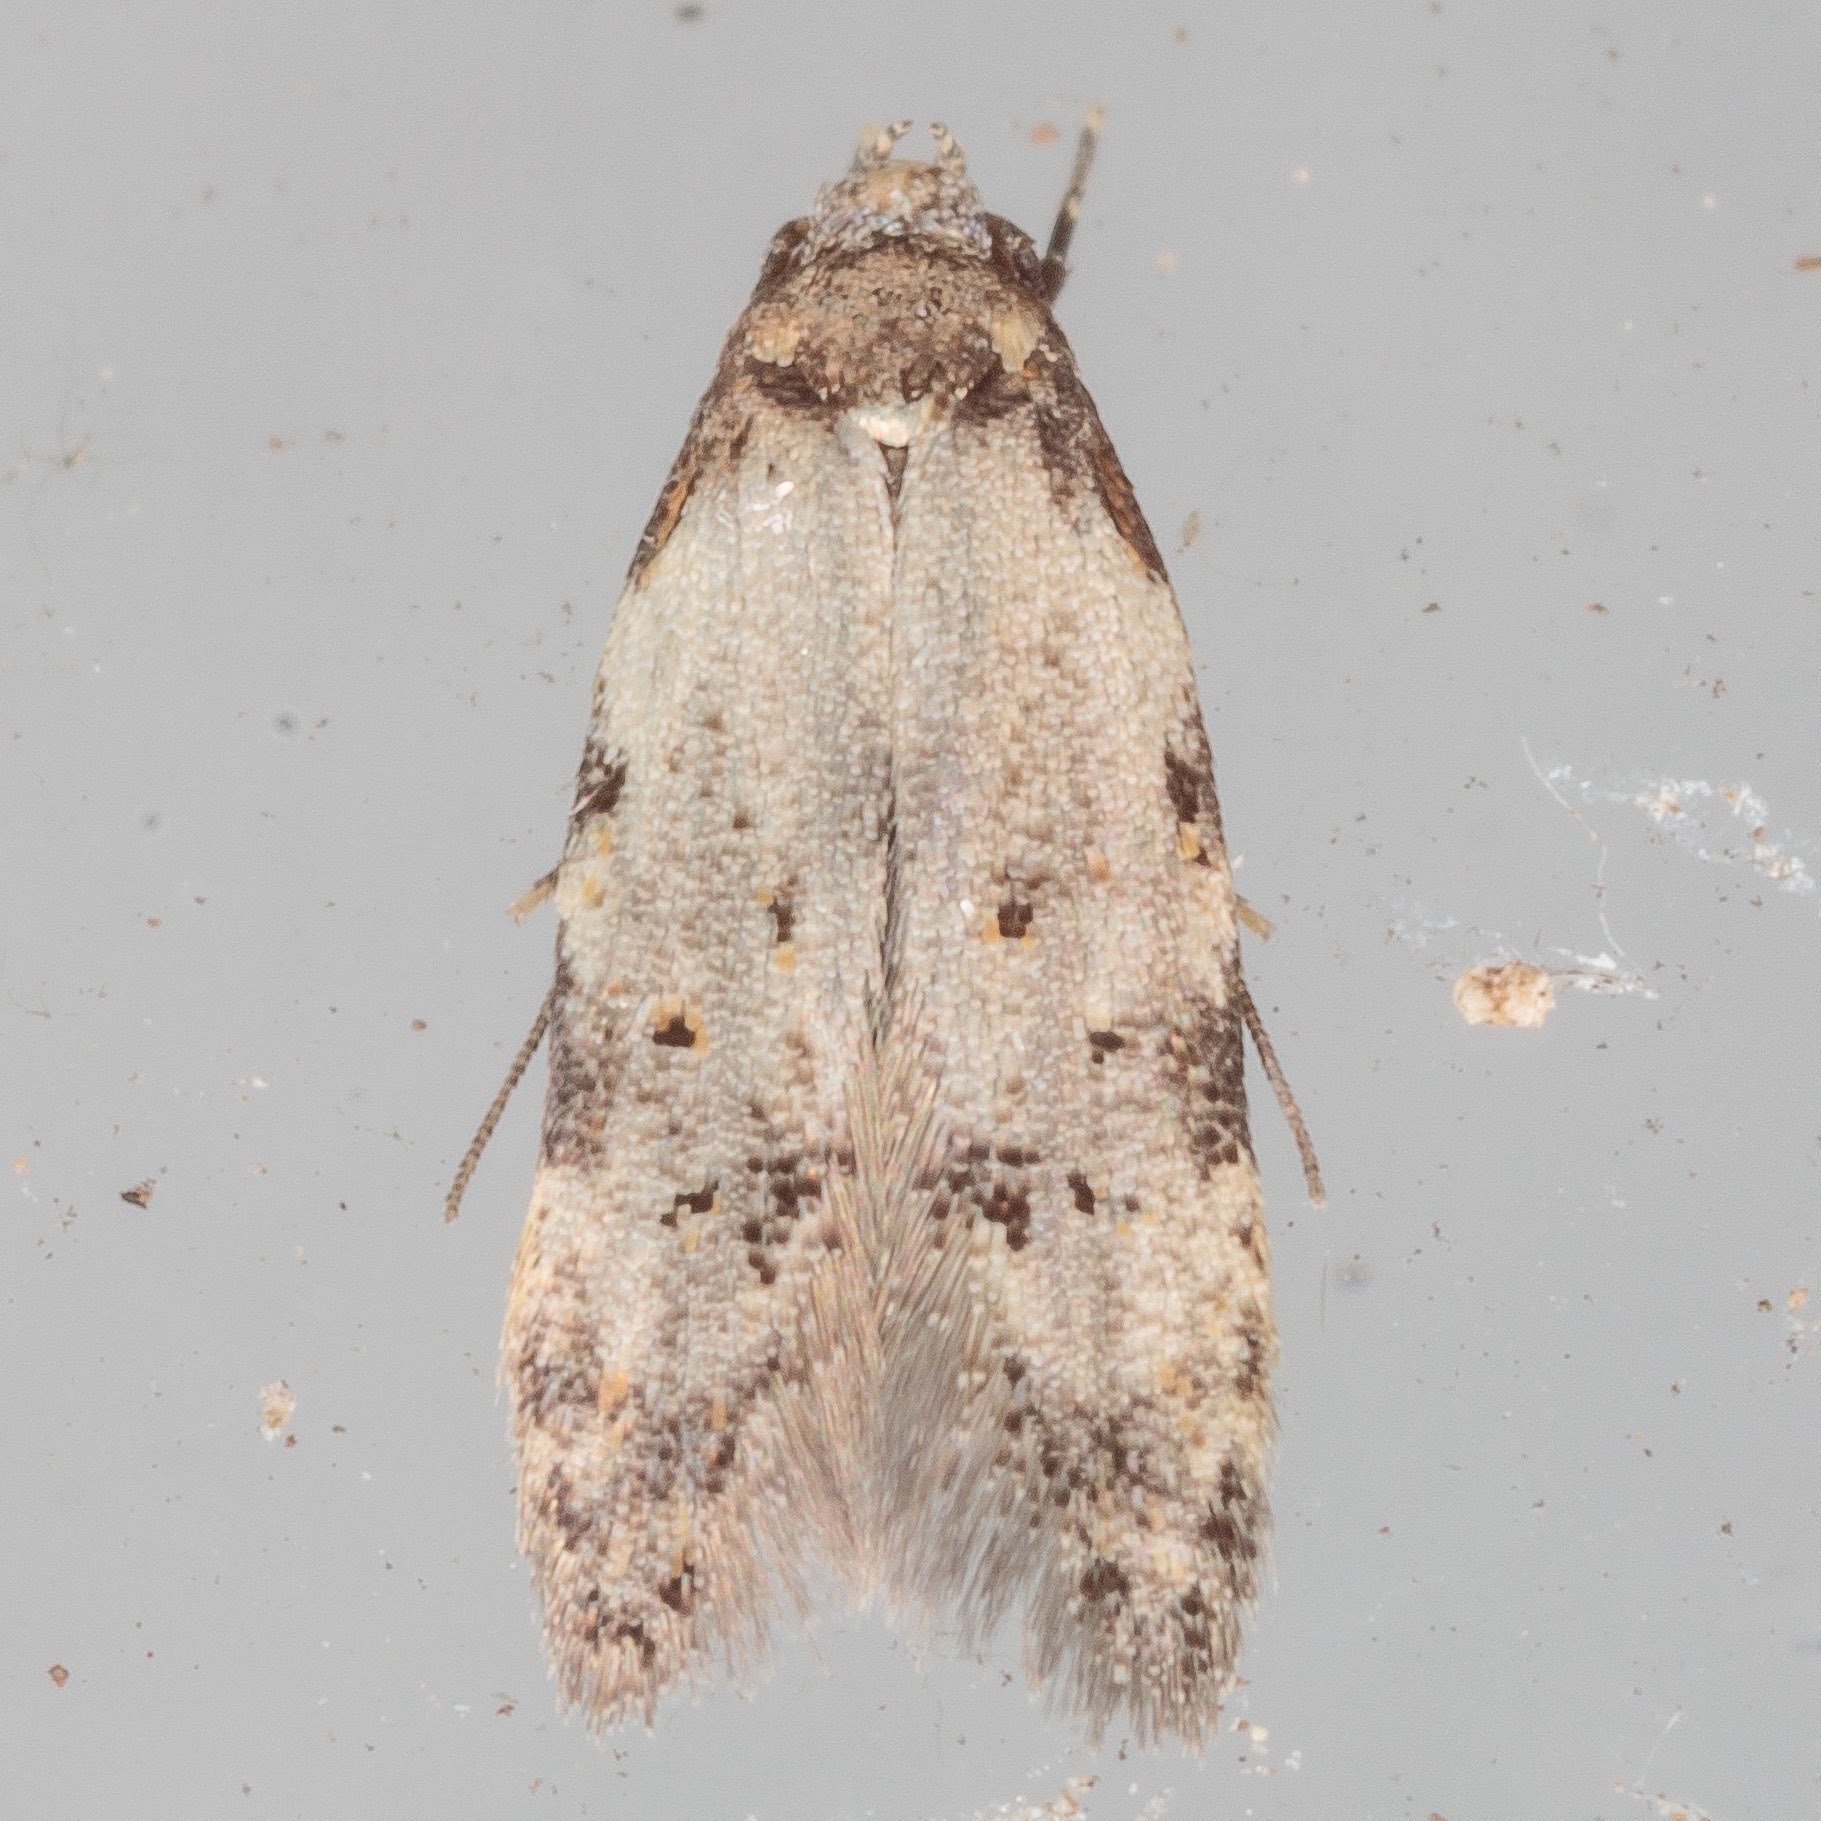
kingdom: Animalia
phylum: Arthropoda
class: Insecta
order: Lepidoptera
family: Autostichidae
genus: Taygete
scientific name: Taygete attributella
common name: Triangle-marked twirler moth
